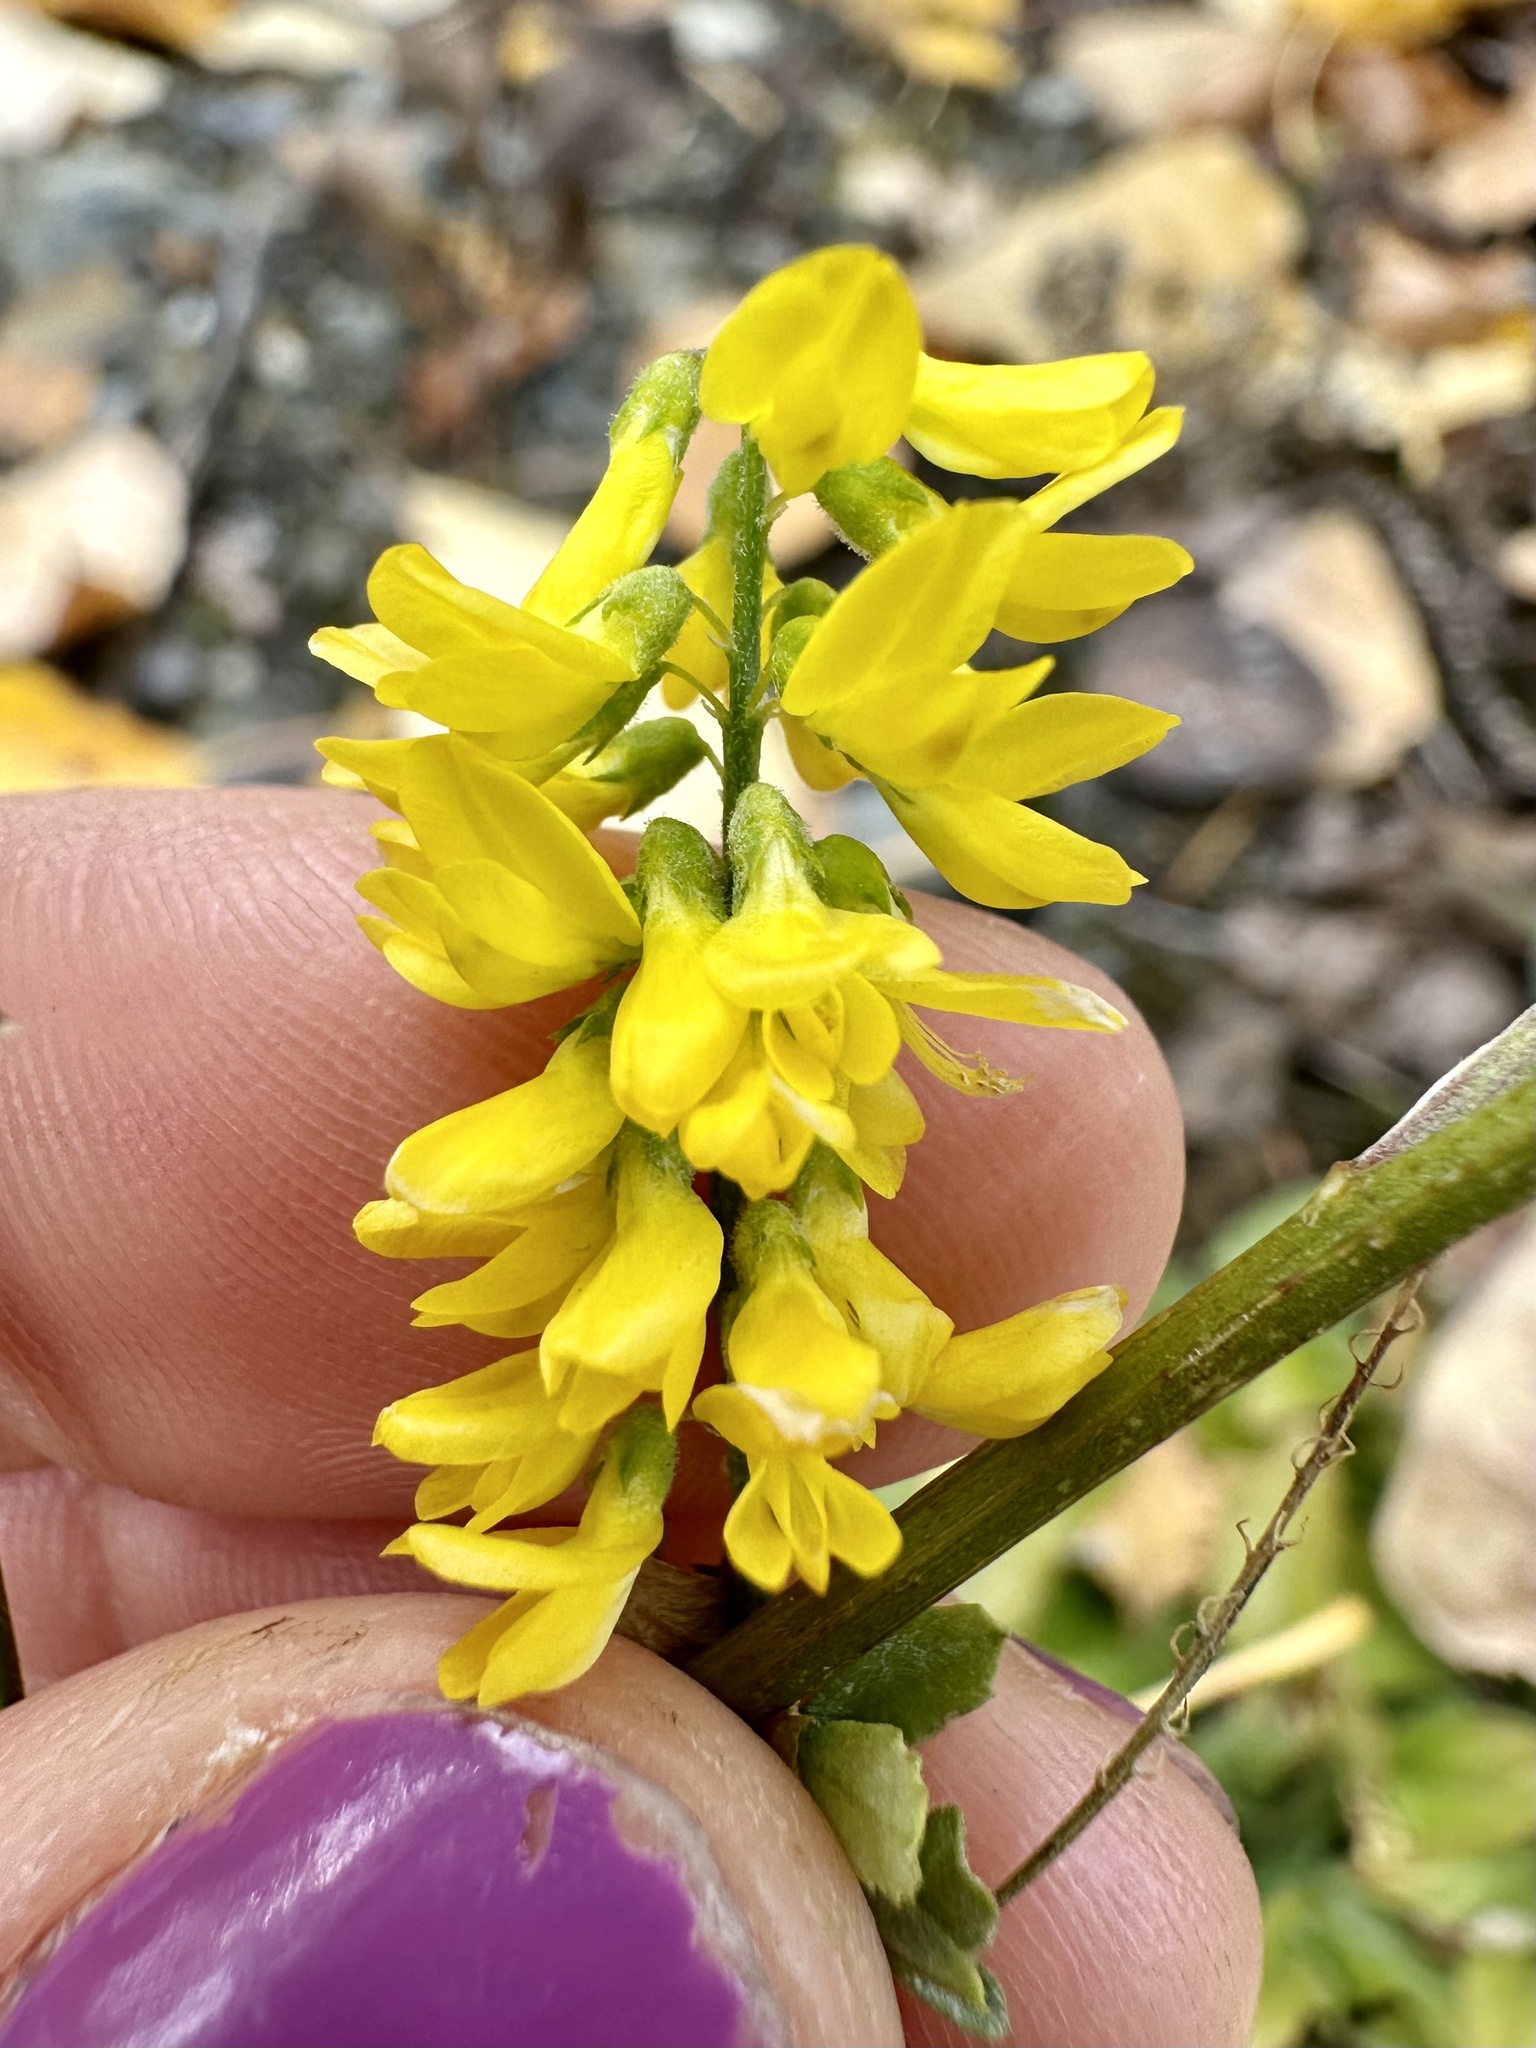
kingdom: Plantae
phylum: Tracheophyta
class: Magnoliopsida
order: Fabales
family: Fabaceae
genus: Melilotus
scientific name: Melilotus officinalis
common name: Sweetclover
